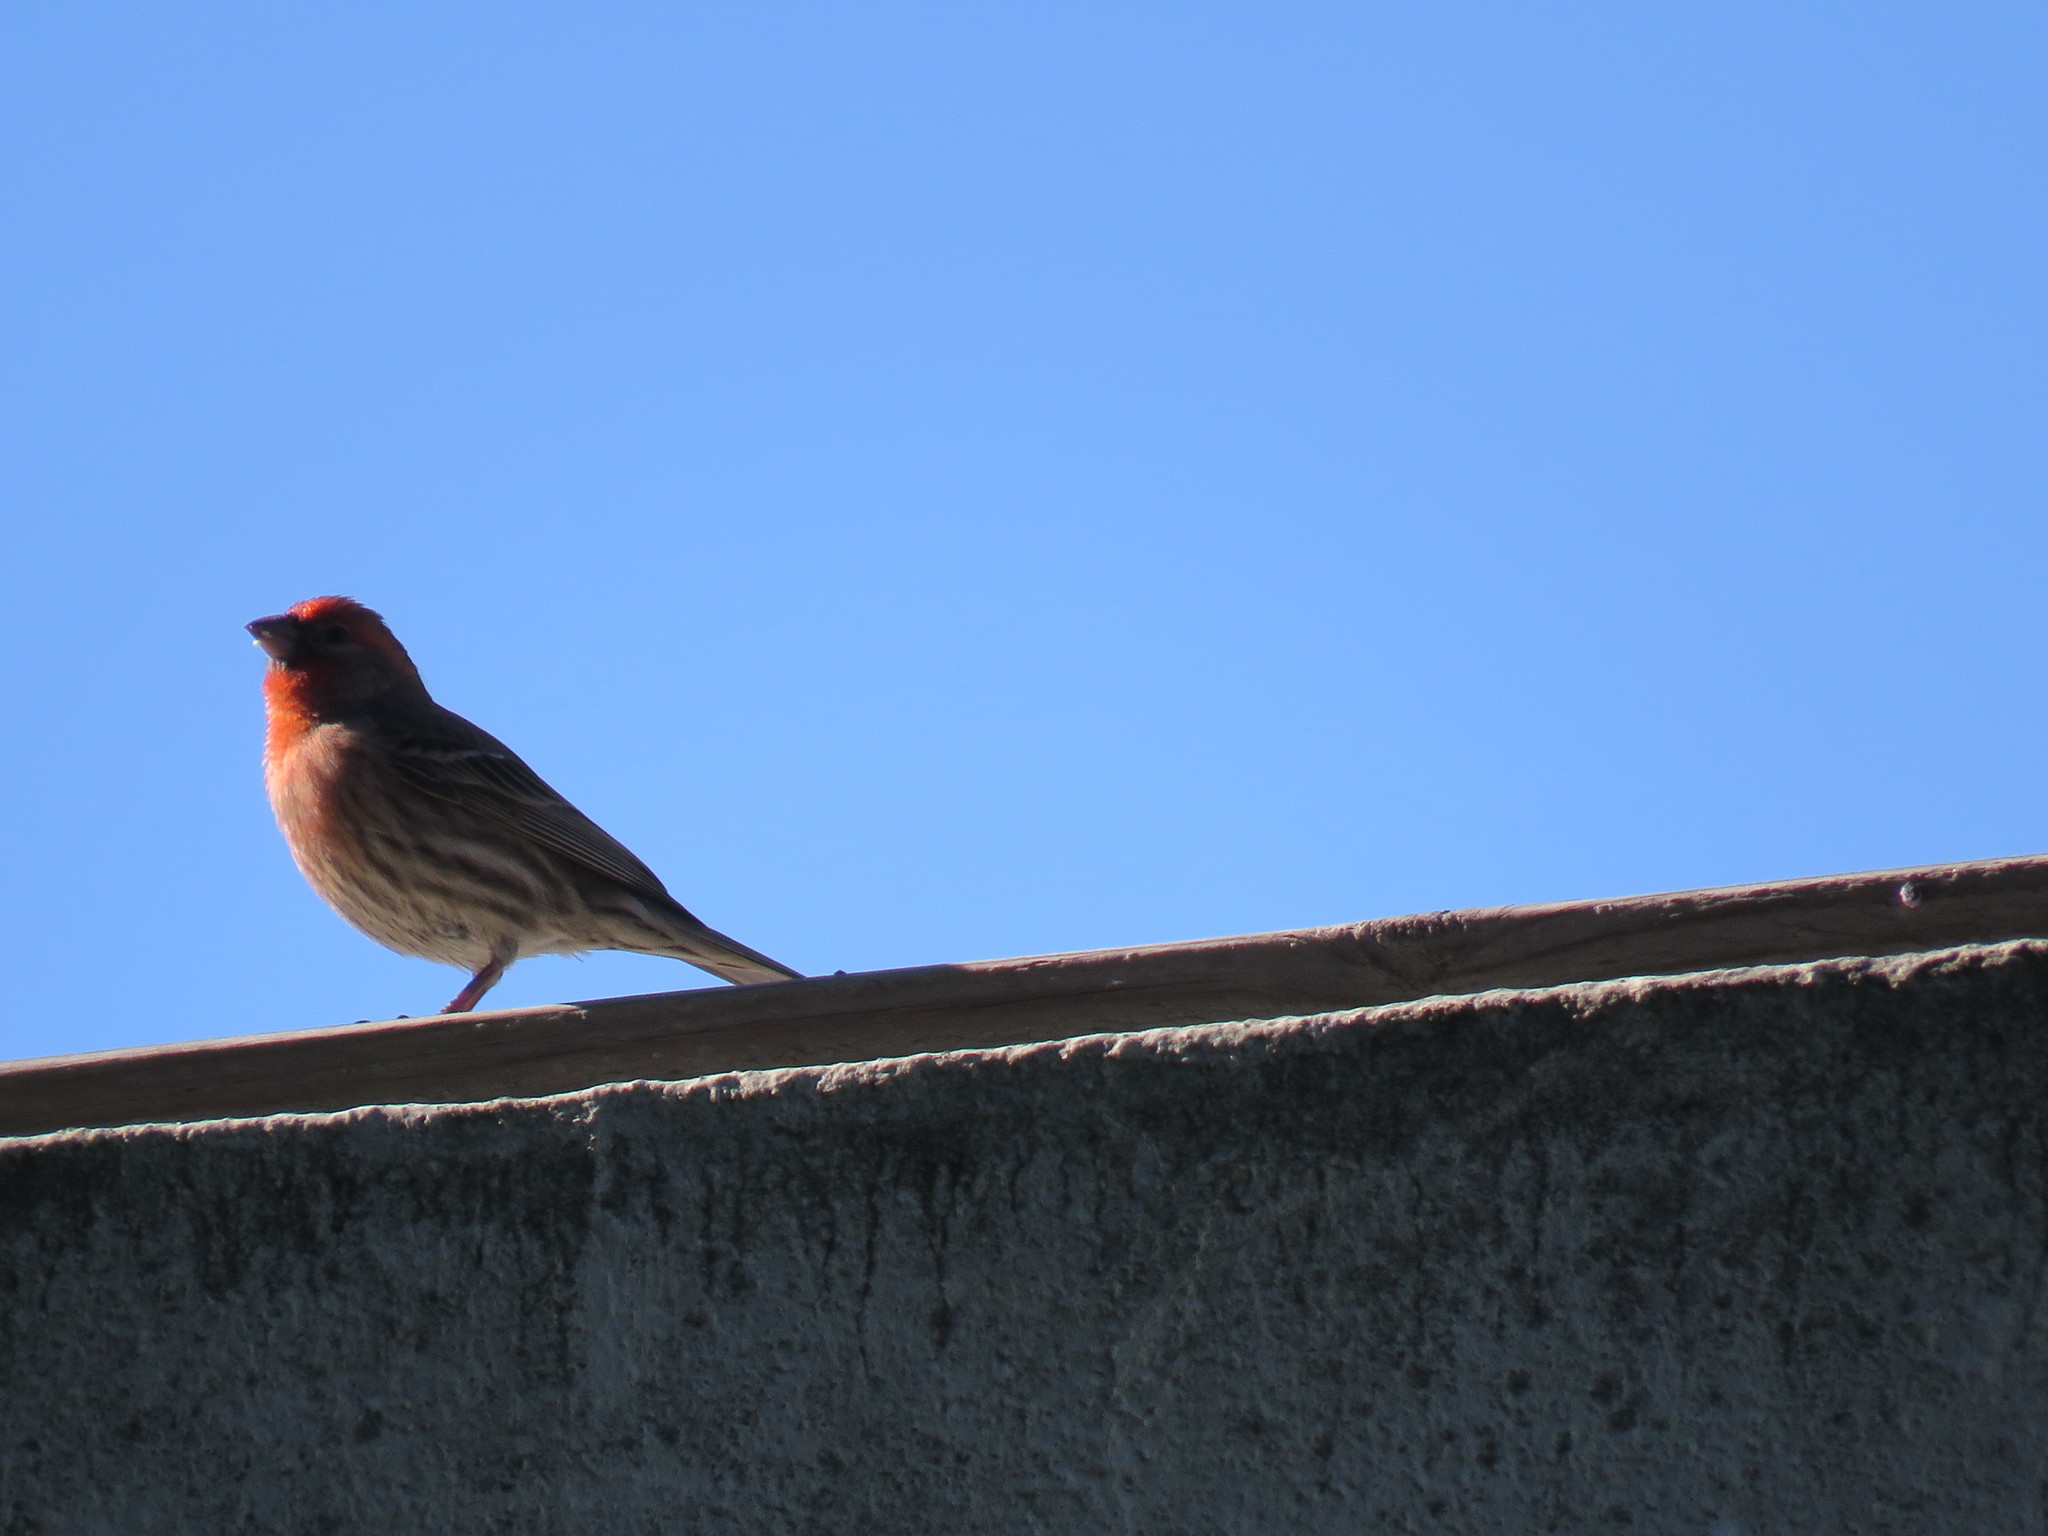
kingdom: Animalia
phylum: Chordata
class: Aves
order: Passeriformes
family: Fringillidae
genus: Haemorhous
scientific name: Haemorhous mexicanus
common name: House finch
